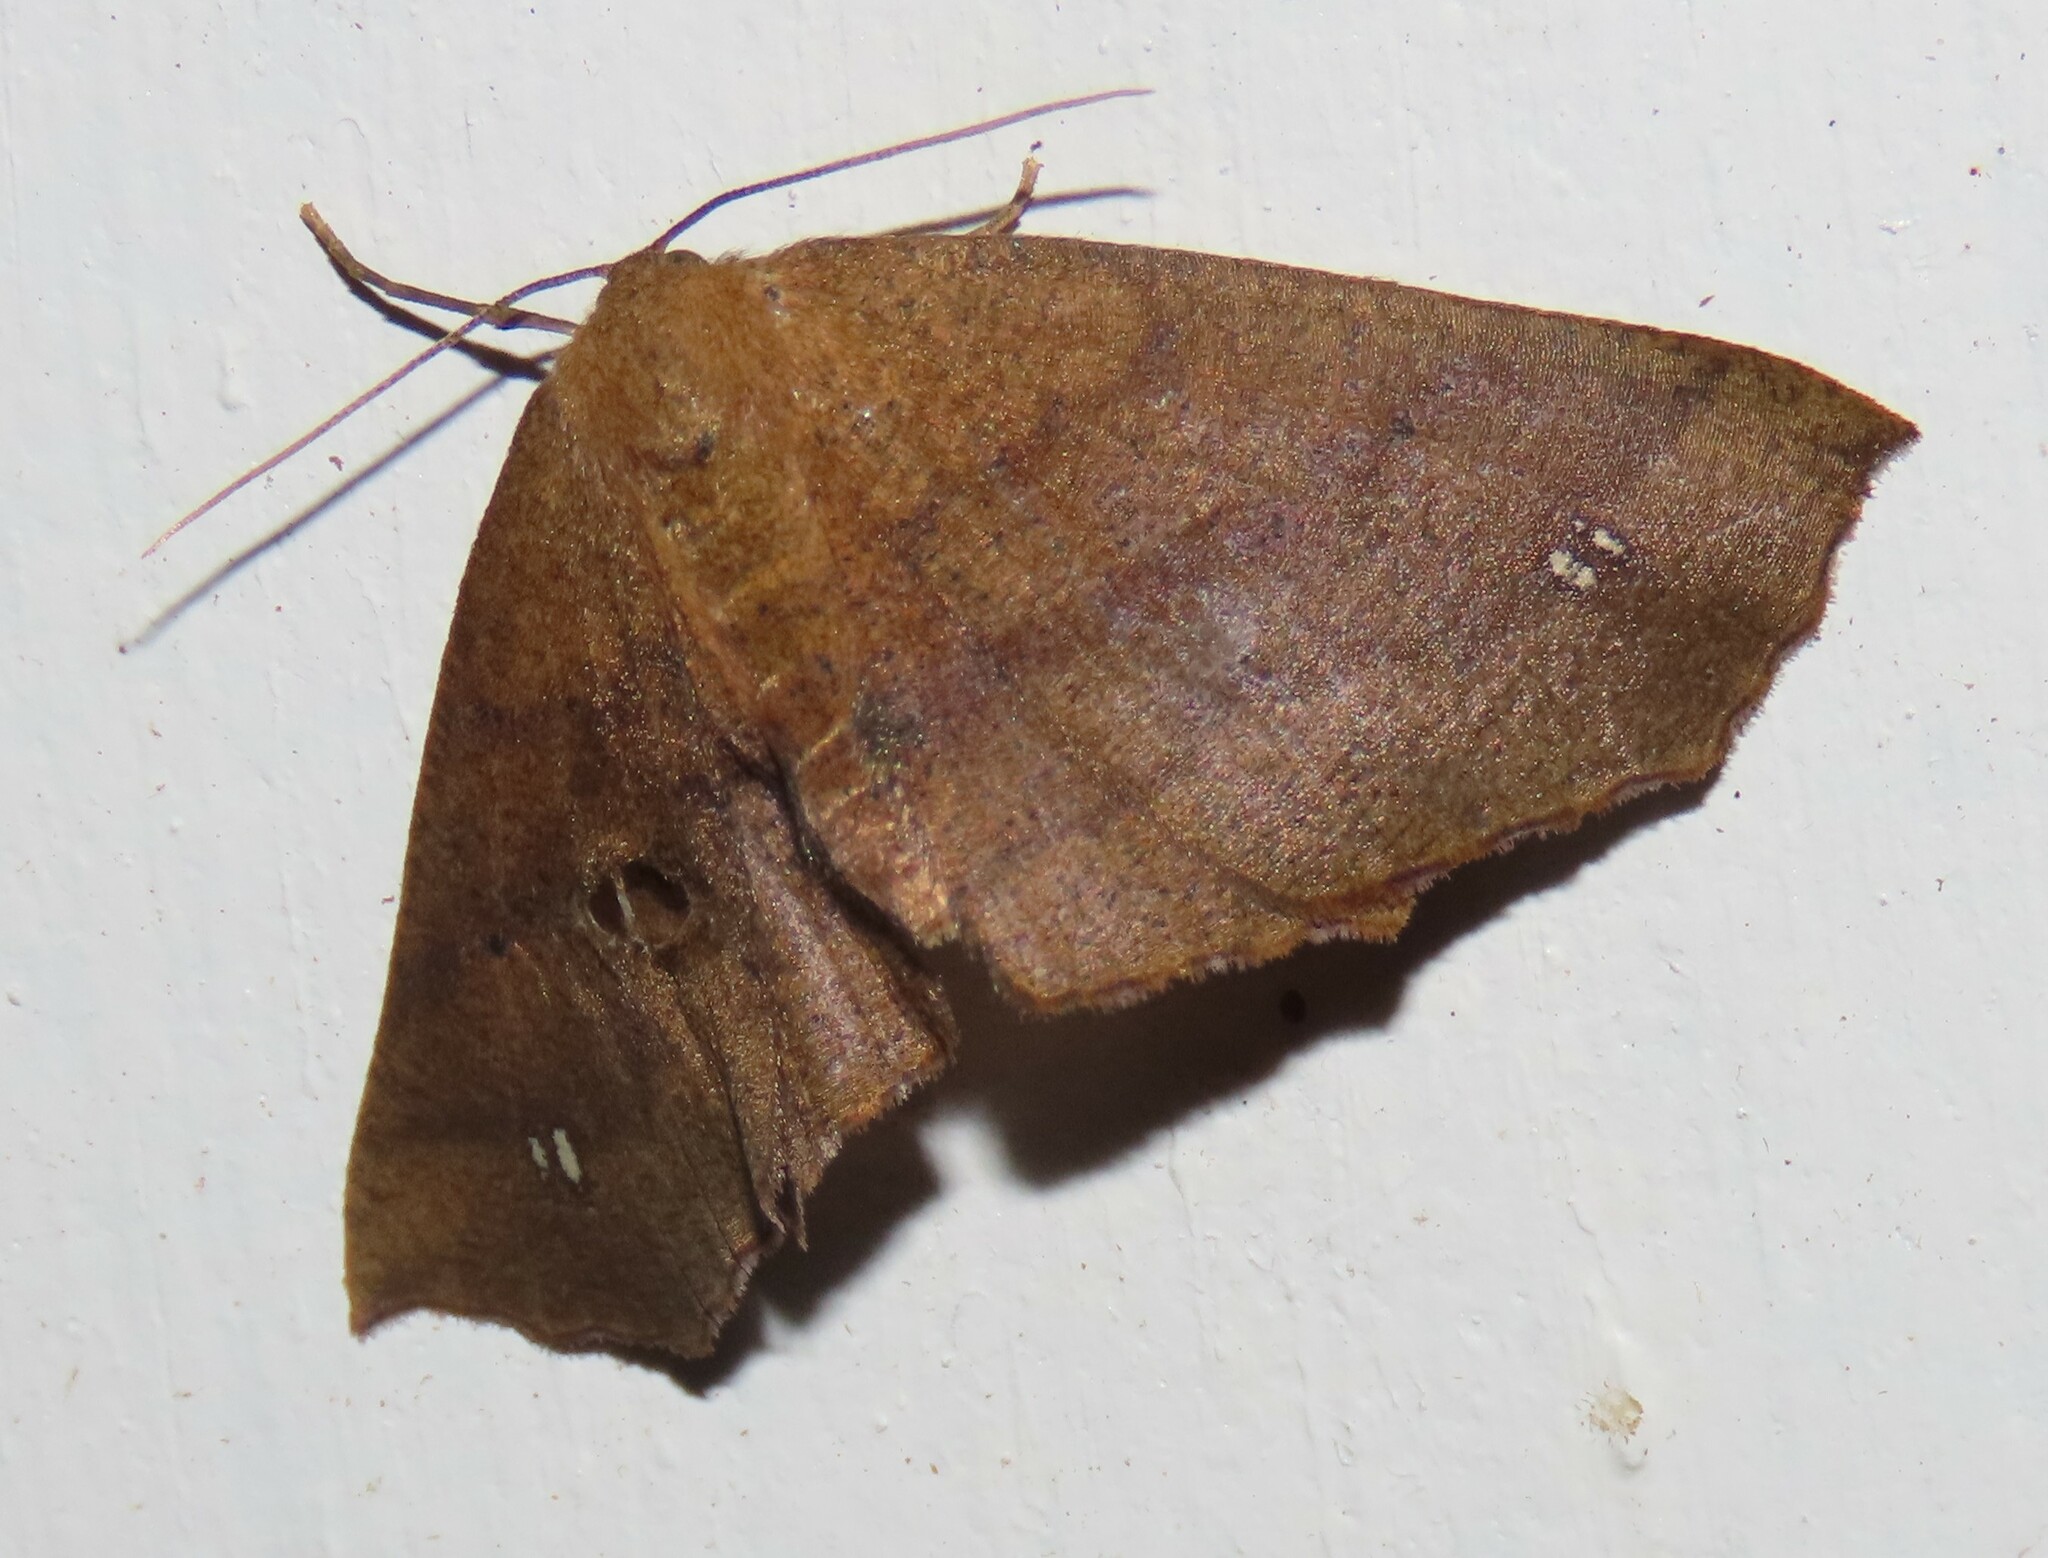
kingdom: Animalia
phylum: Arthropoda
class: Insecta
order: Lepidoptera
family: Geometridae
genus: Xyridacma
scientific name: Xyridacma ustaria
